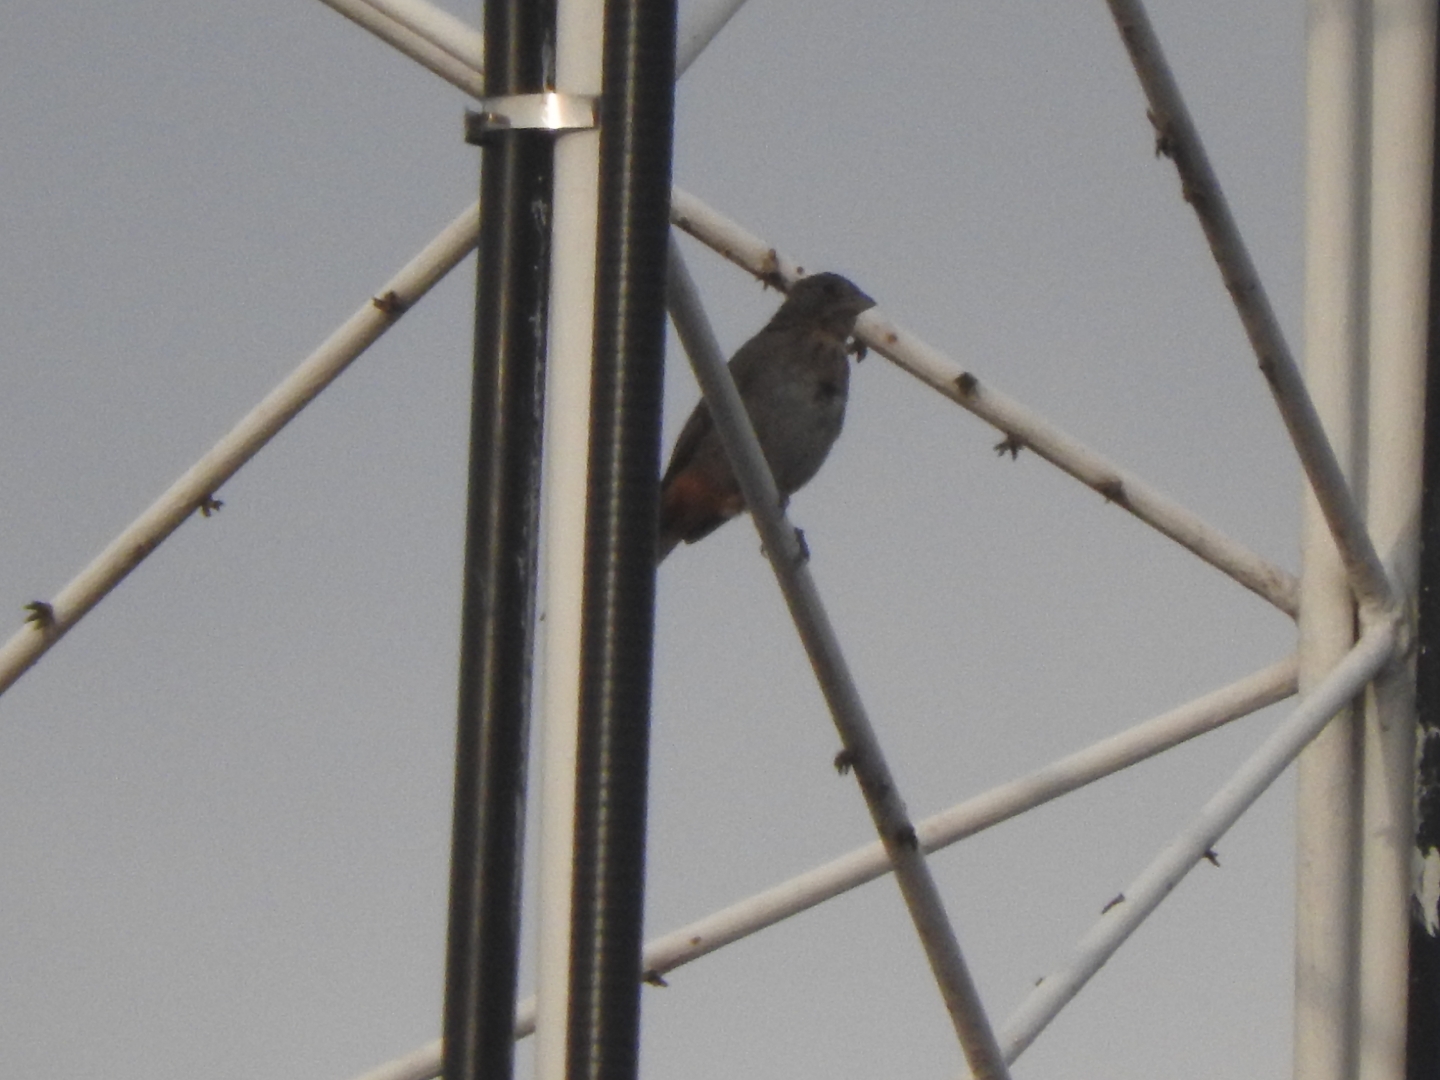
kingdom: Animalia
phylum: Chordata
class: Aves
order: Passeriformes
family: Passerellidae
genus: Melozone
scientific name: Melozone fusca
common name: Canyon towhee
